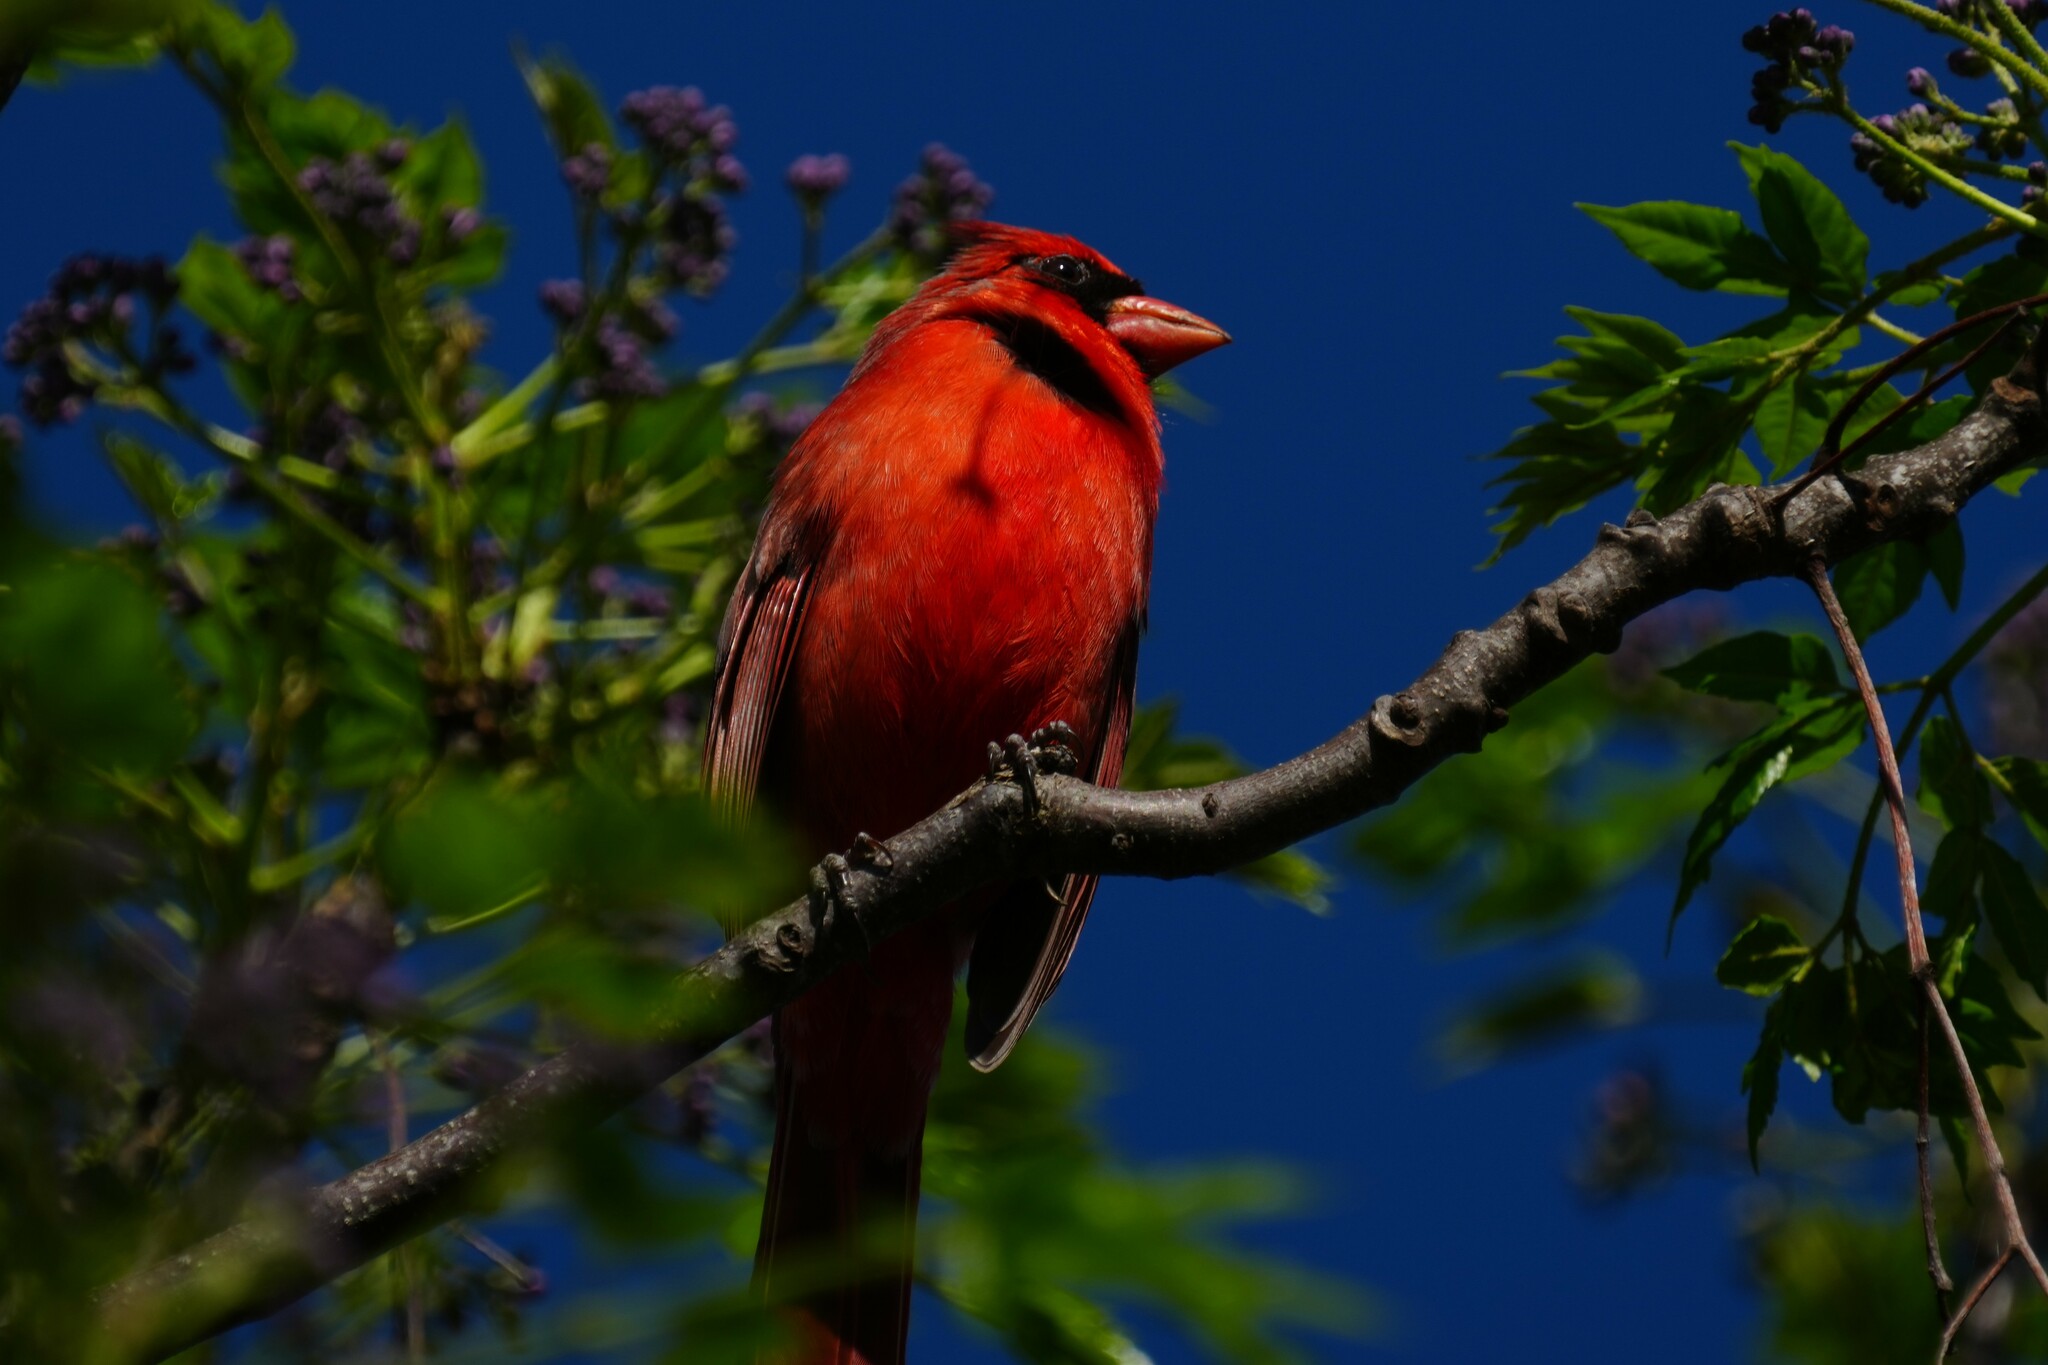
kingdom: Animalia
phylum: Chordata
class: Aves
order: Passeriformes
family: Cardinalidae
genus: Cardinalis
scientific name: Cardinalis cardinalis
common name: Northern cardinal
